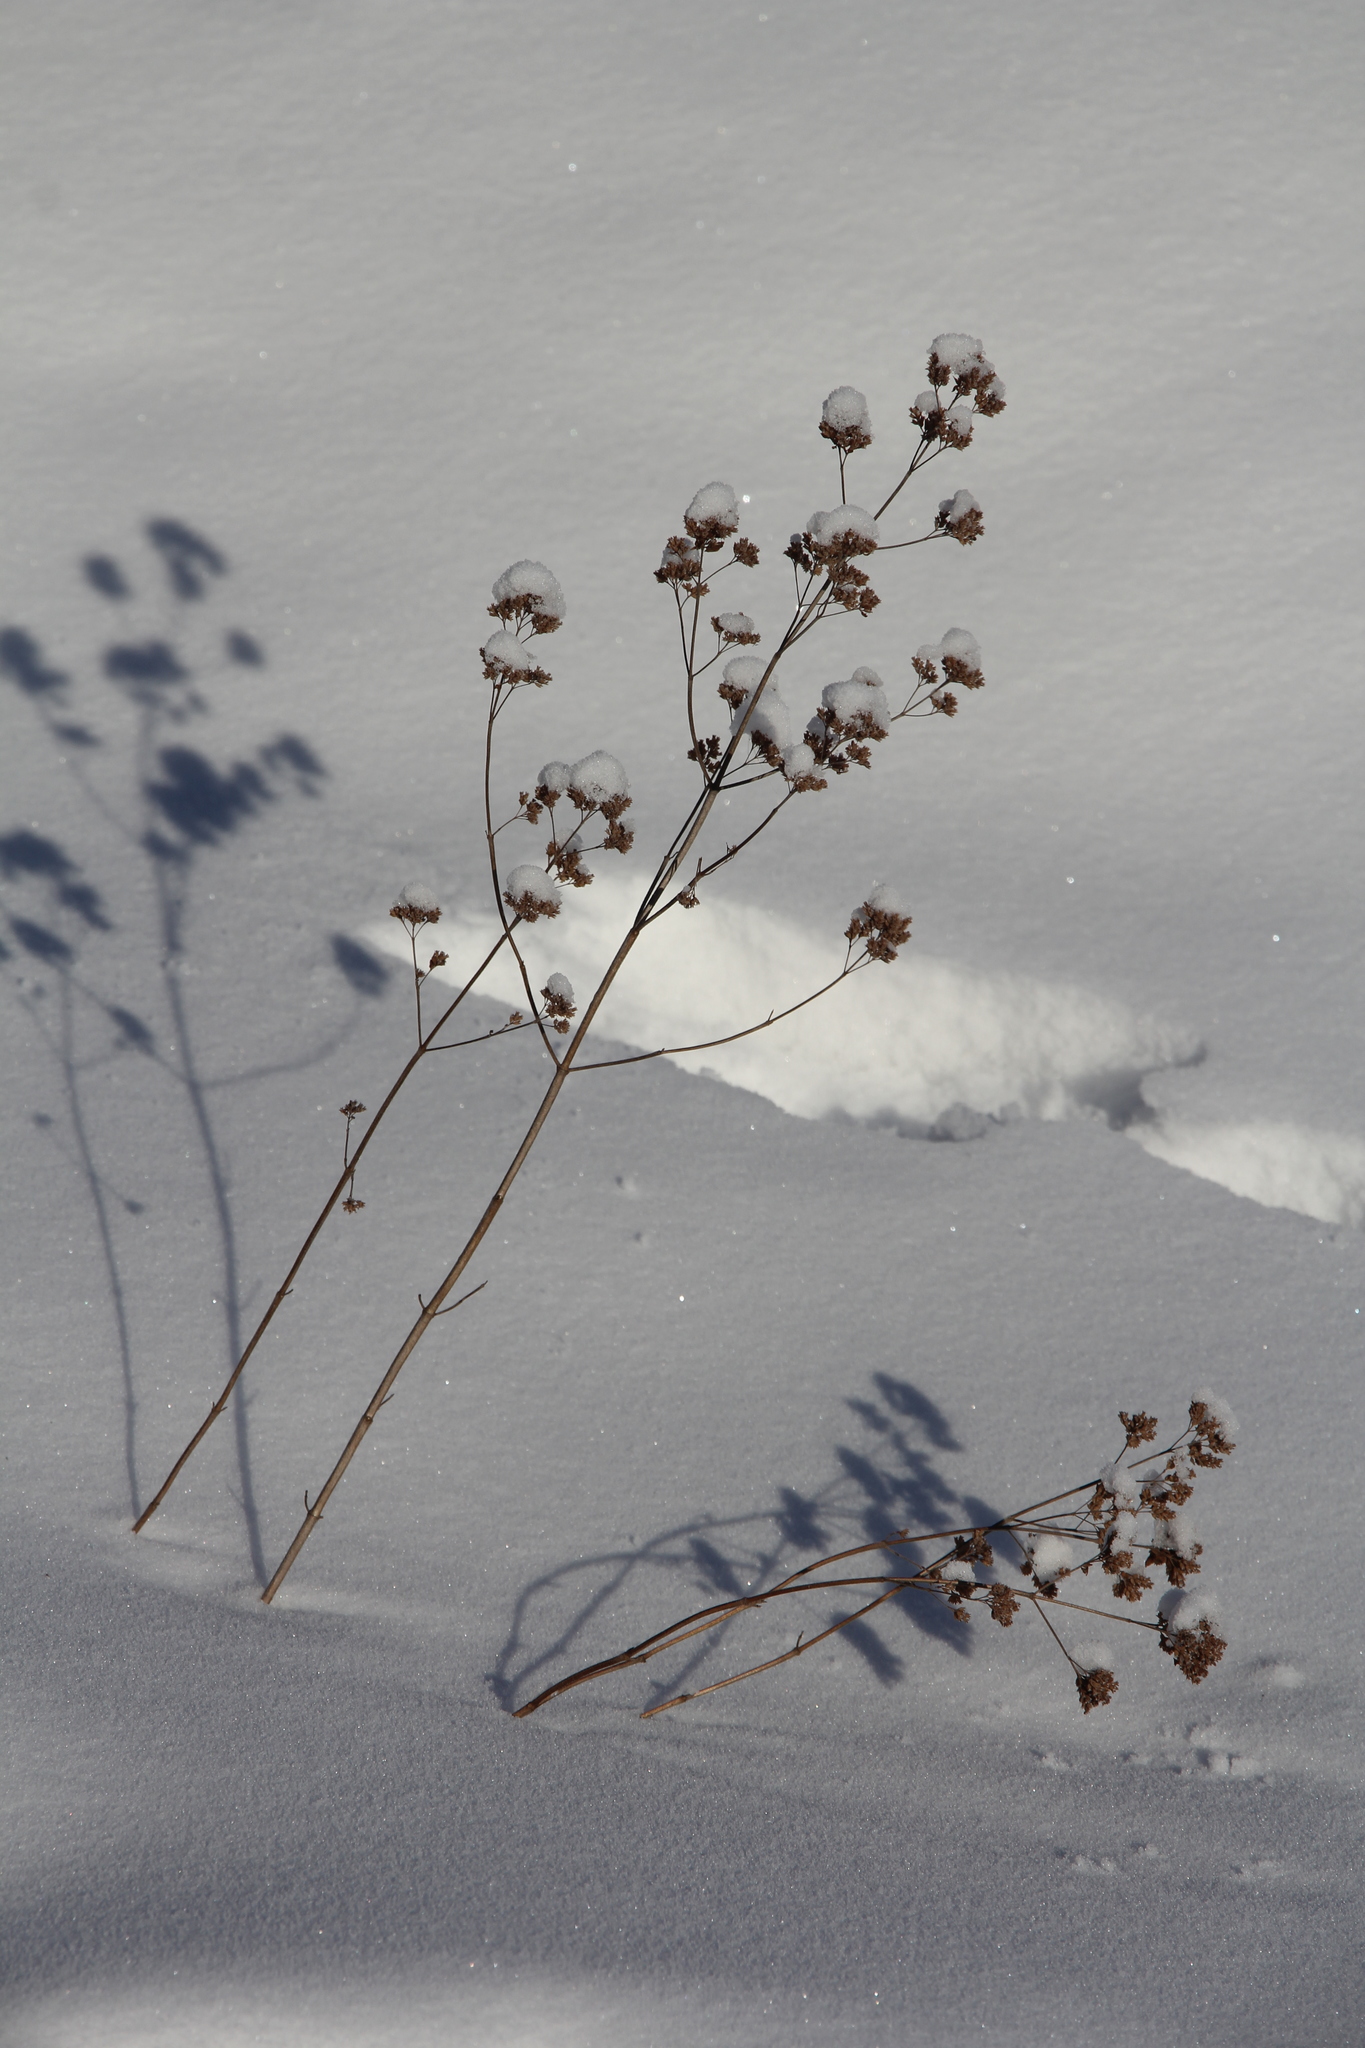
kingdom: Plantae
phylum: Tracheophyta
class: Magnoliopsida
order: Lamiales
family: Lamiaceae
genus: Origanum
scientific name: Origanum vulgare
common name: Wild marjoram
